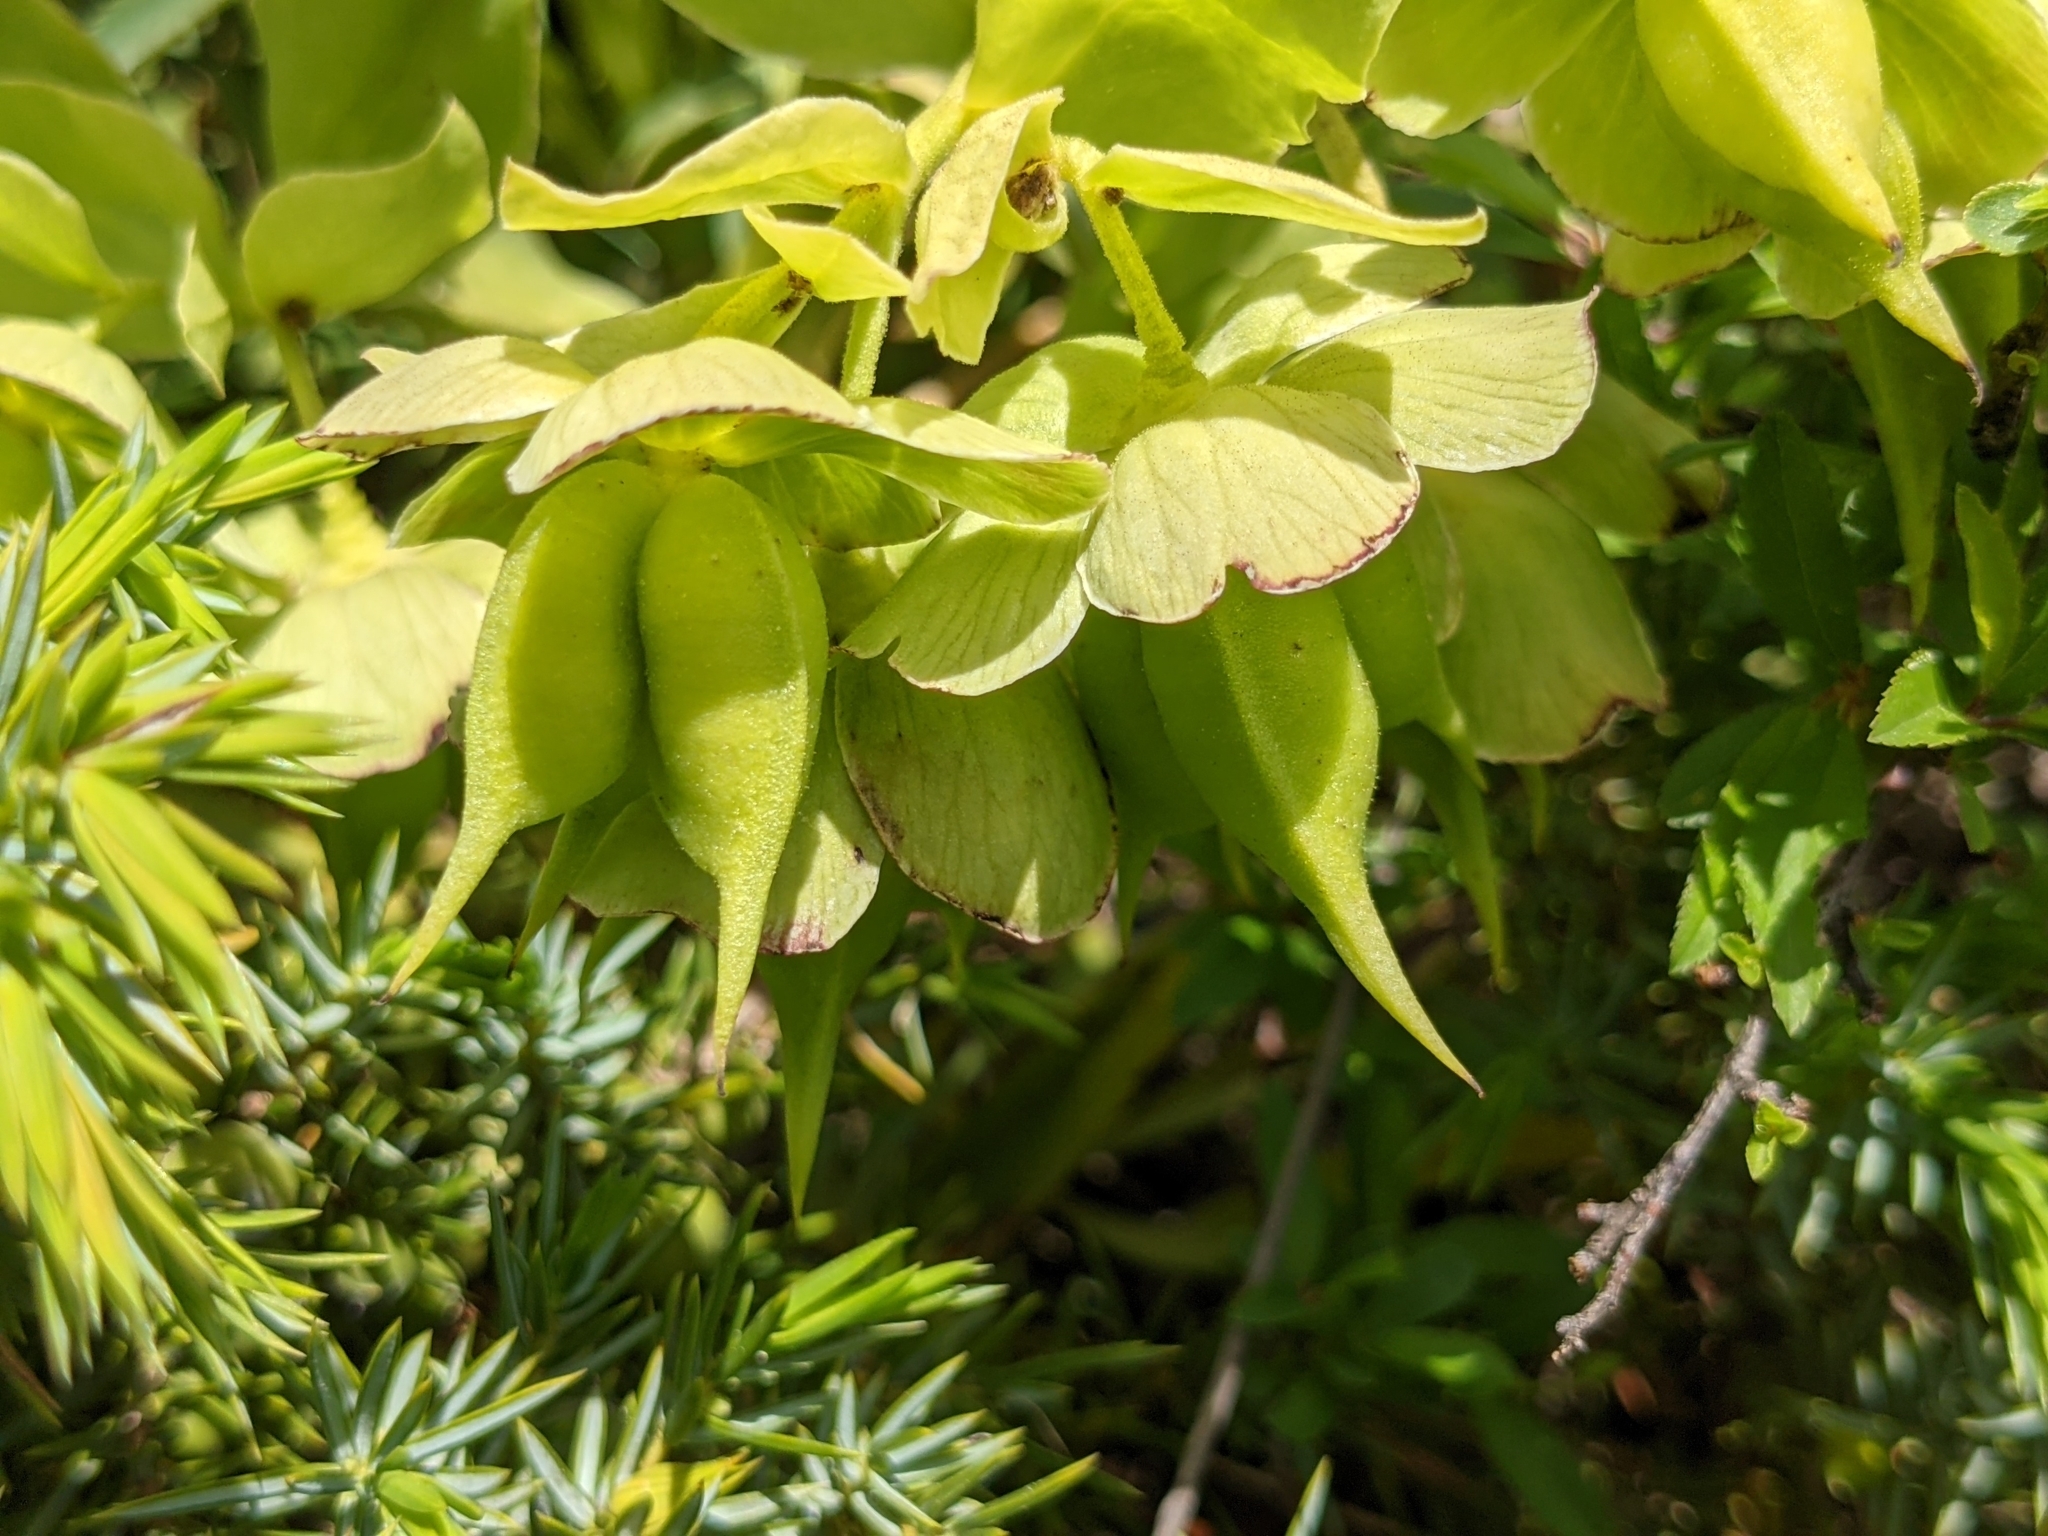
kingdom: Plantae
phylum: Tracheophyta
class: Magnoliopsida
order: Ranunculales
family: Ranunculaceae
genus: Helleborus
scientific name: Helleborus foetidus
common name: Stinking hellebore
